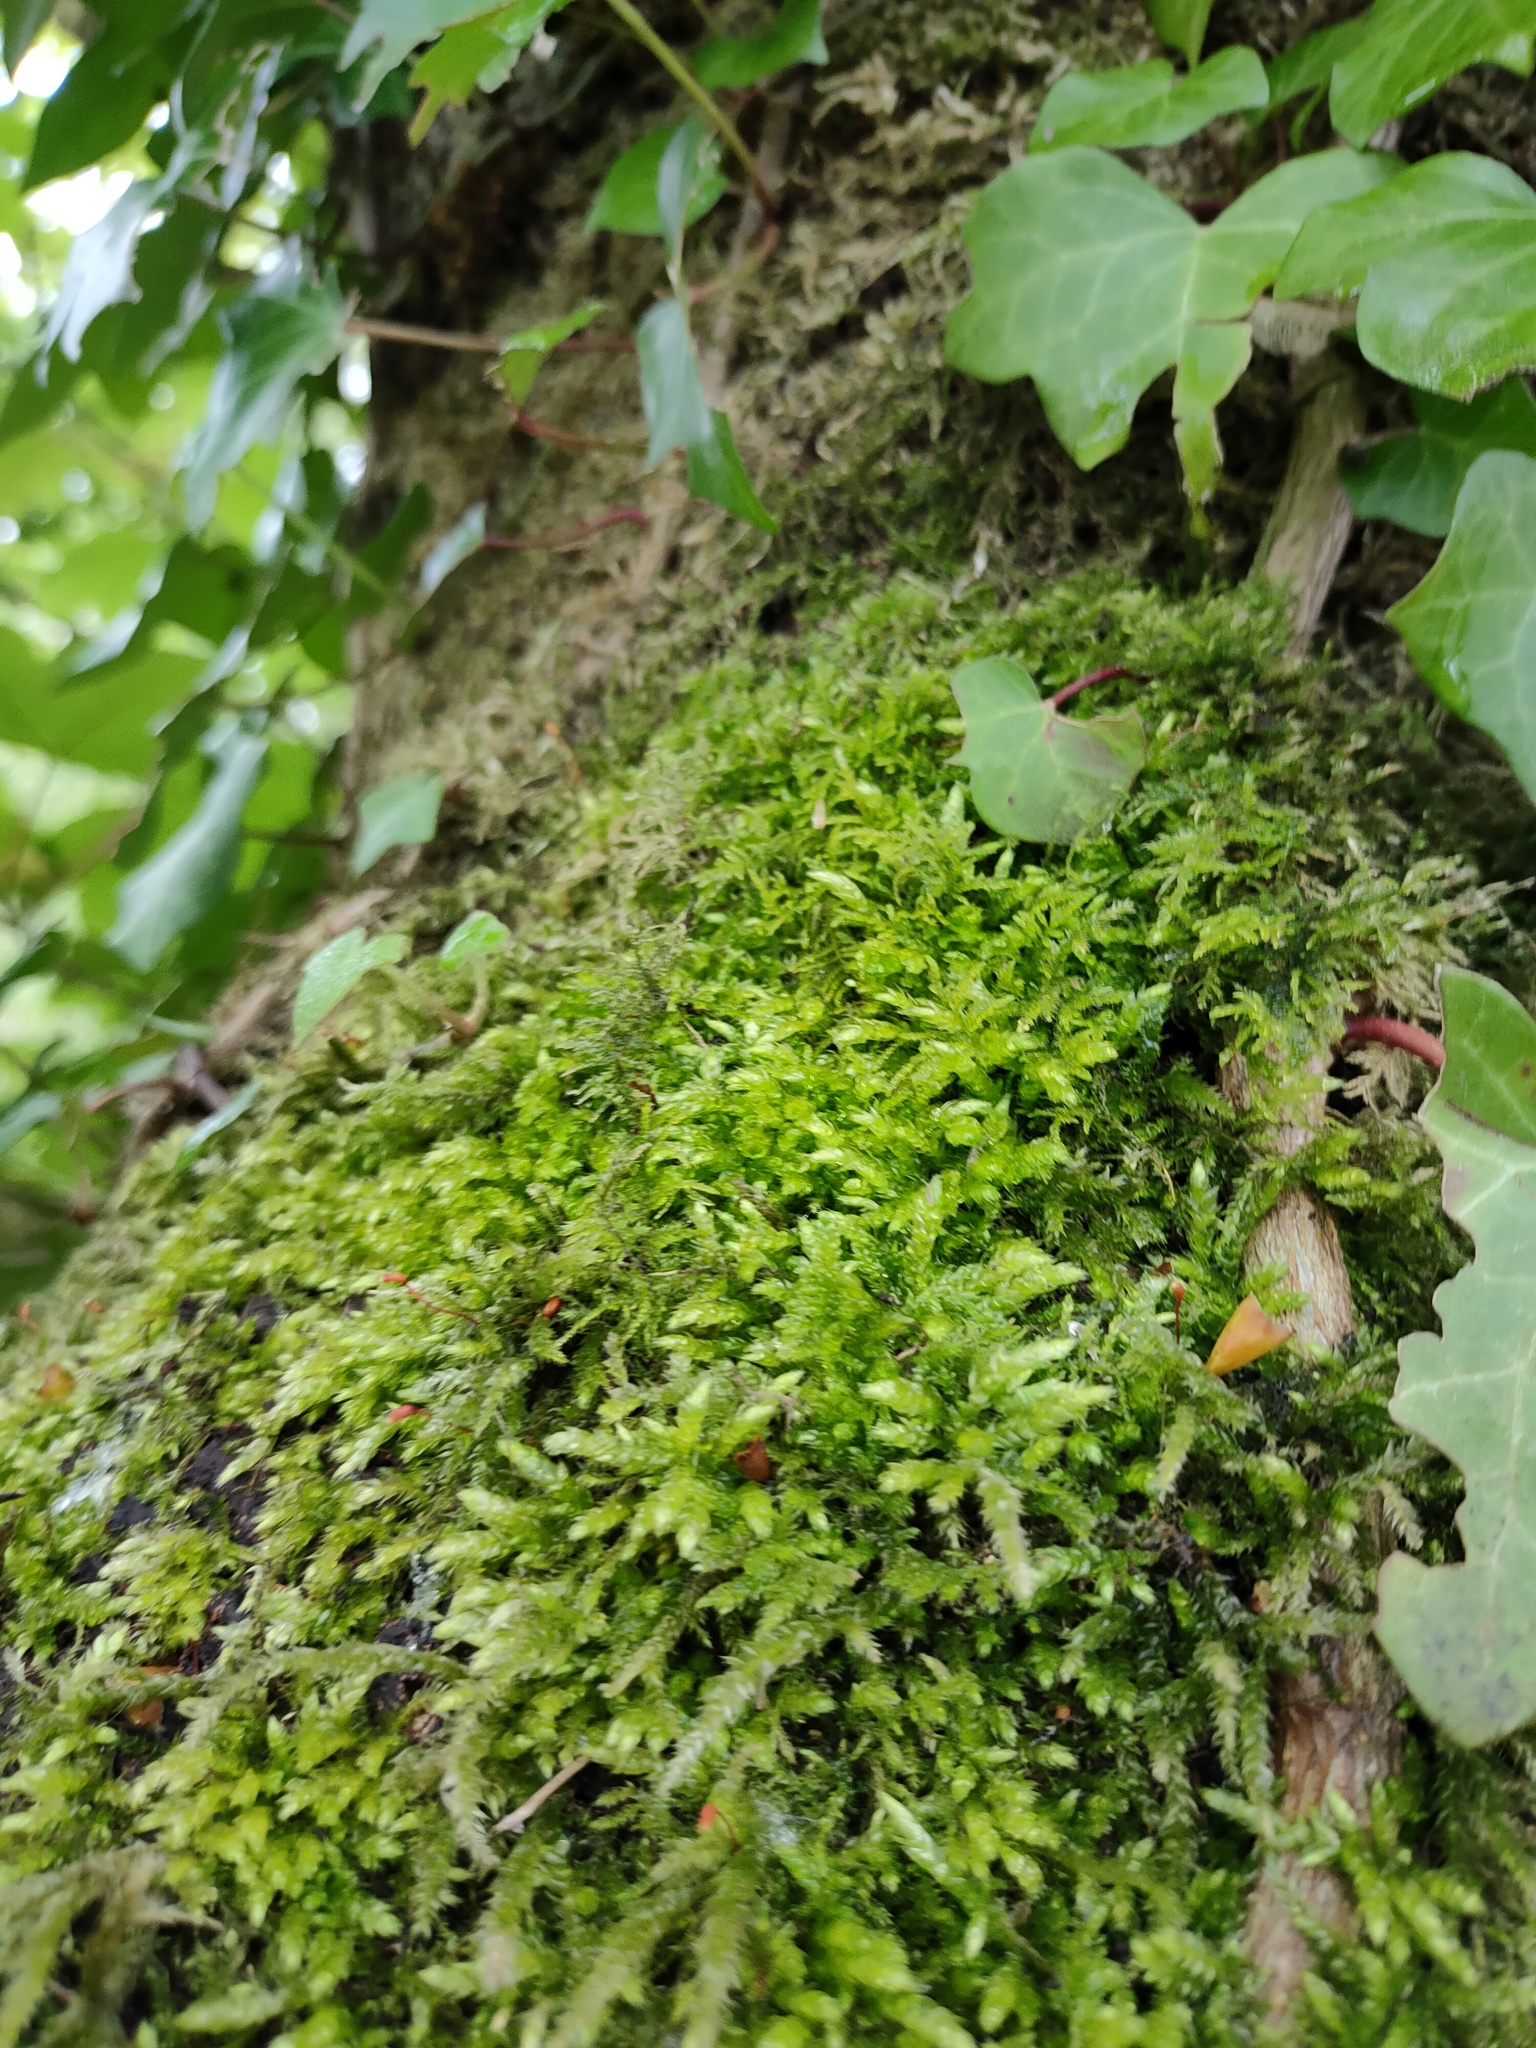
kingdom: Plantae
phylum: Bryophyta
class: Bryopsida
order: Hypnales
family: Brachytheciaceae
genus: Brachythecium
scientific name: Brachythecium rutabulum
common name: Rough-stalked feather-moss
